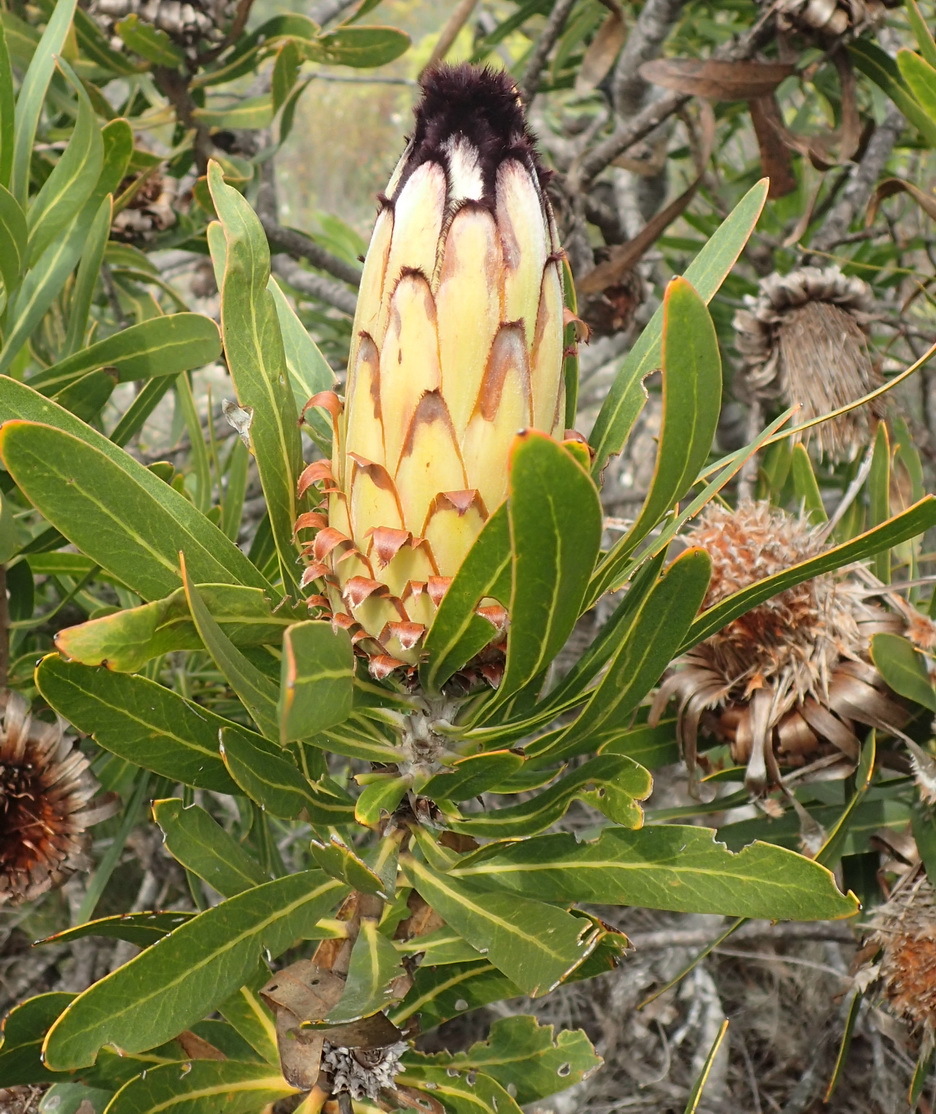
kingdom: Plantae
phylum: Tracheophyta
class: Magnoliopsida
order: Proteales
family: Proteaceae
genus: Protea
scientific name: Protea neriifolia
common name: Blue sugarbush
